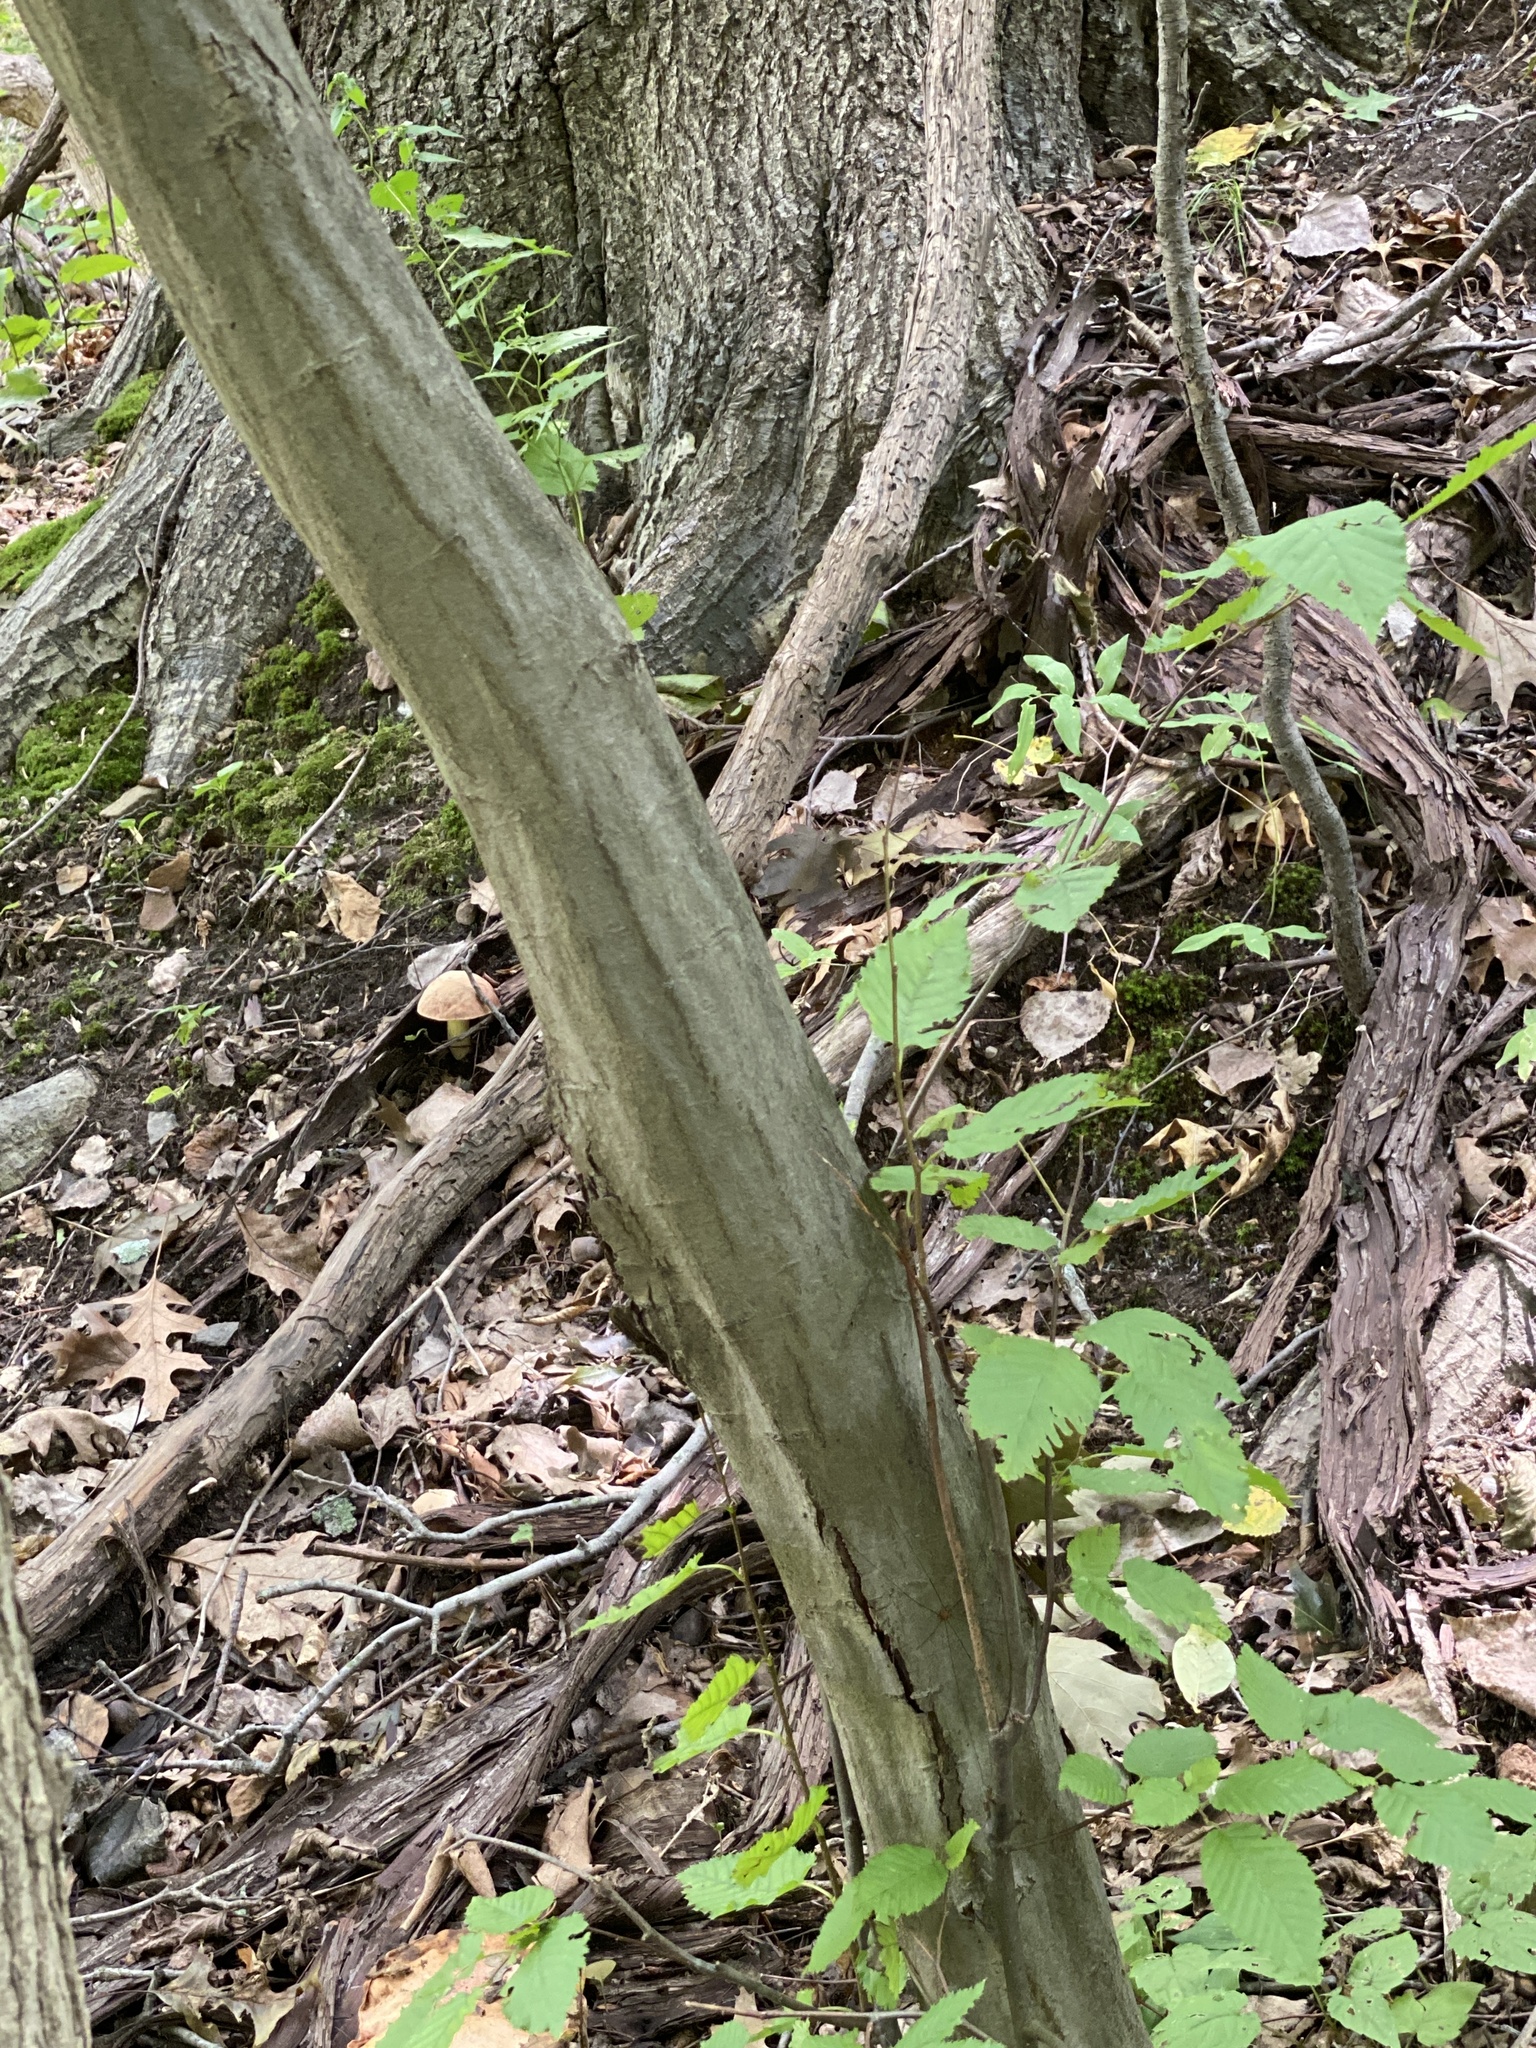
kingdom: Plantae
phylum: Tracheophyta
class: Magnoliopsida
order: Fagales
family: Betulaceae
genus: Carpinus
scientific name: Carpinus caroliniana
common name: American hornbeam
